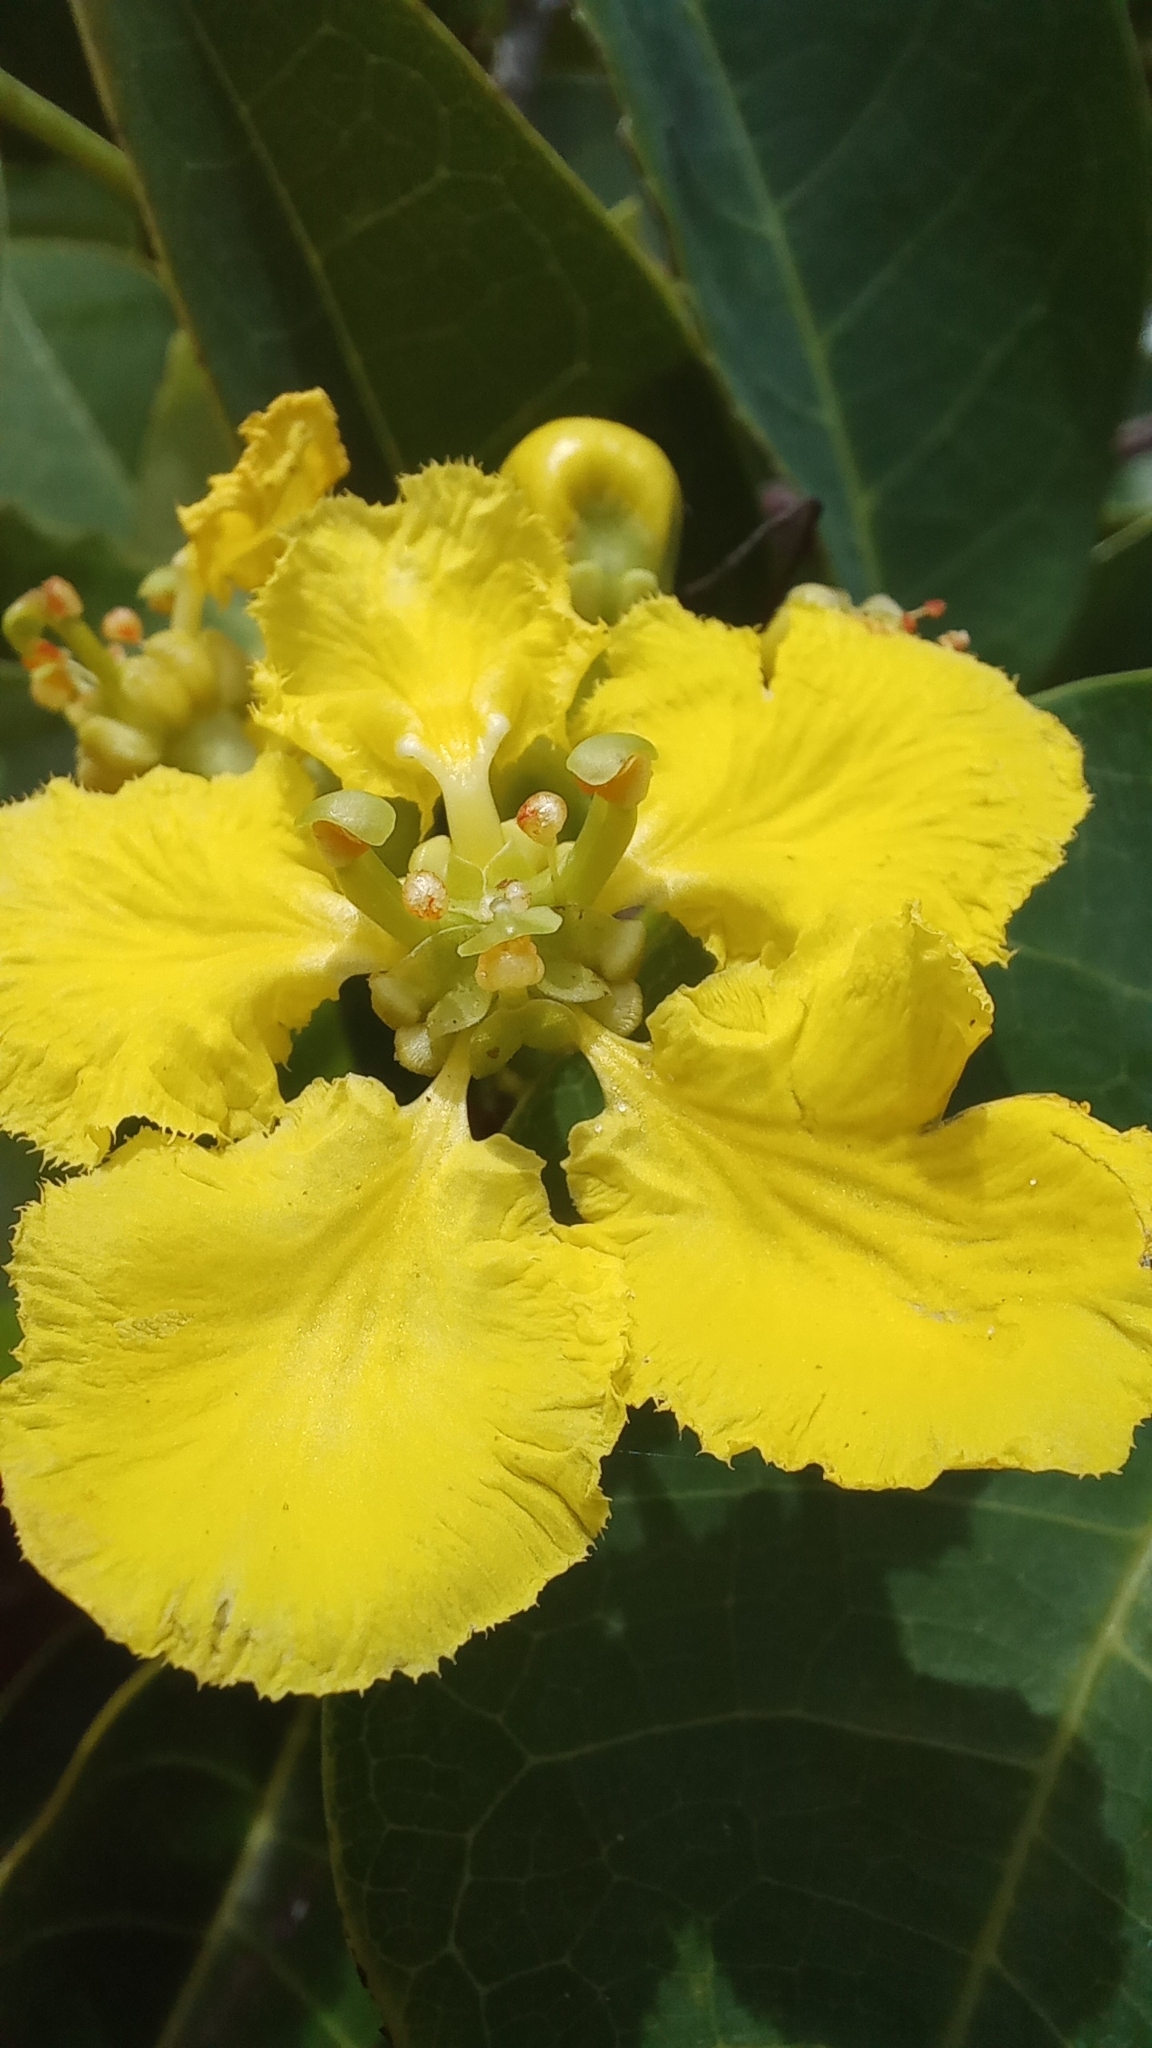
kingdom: Plantae
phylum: Tracheophyta
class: Magnoliopsida
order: Malpighiales
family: Malpighiaceae
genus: Stigmaphyllon
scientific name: Stigmaphyllon ciliatum
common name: Amazonvine
